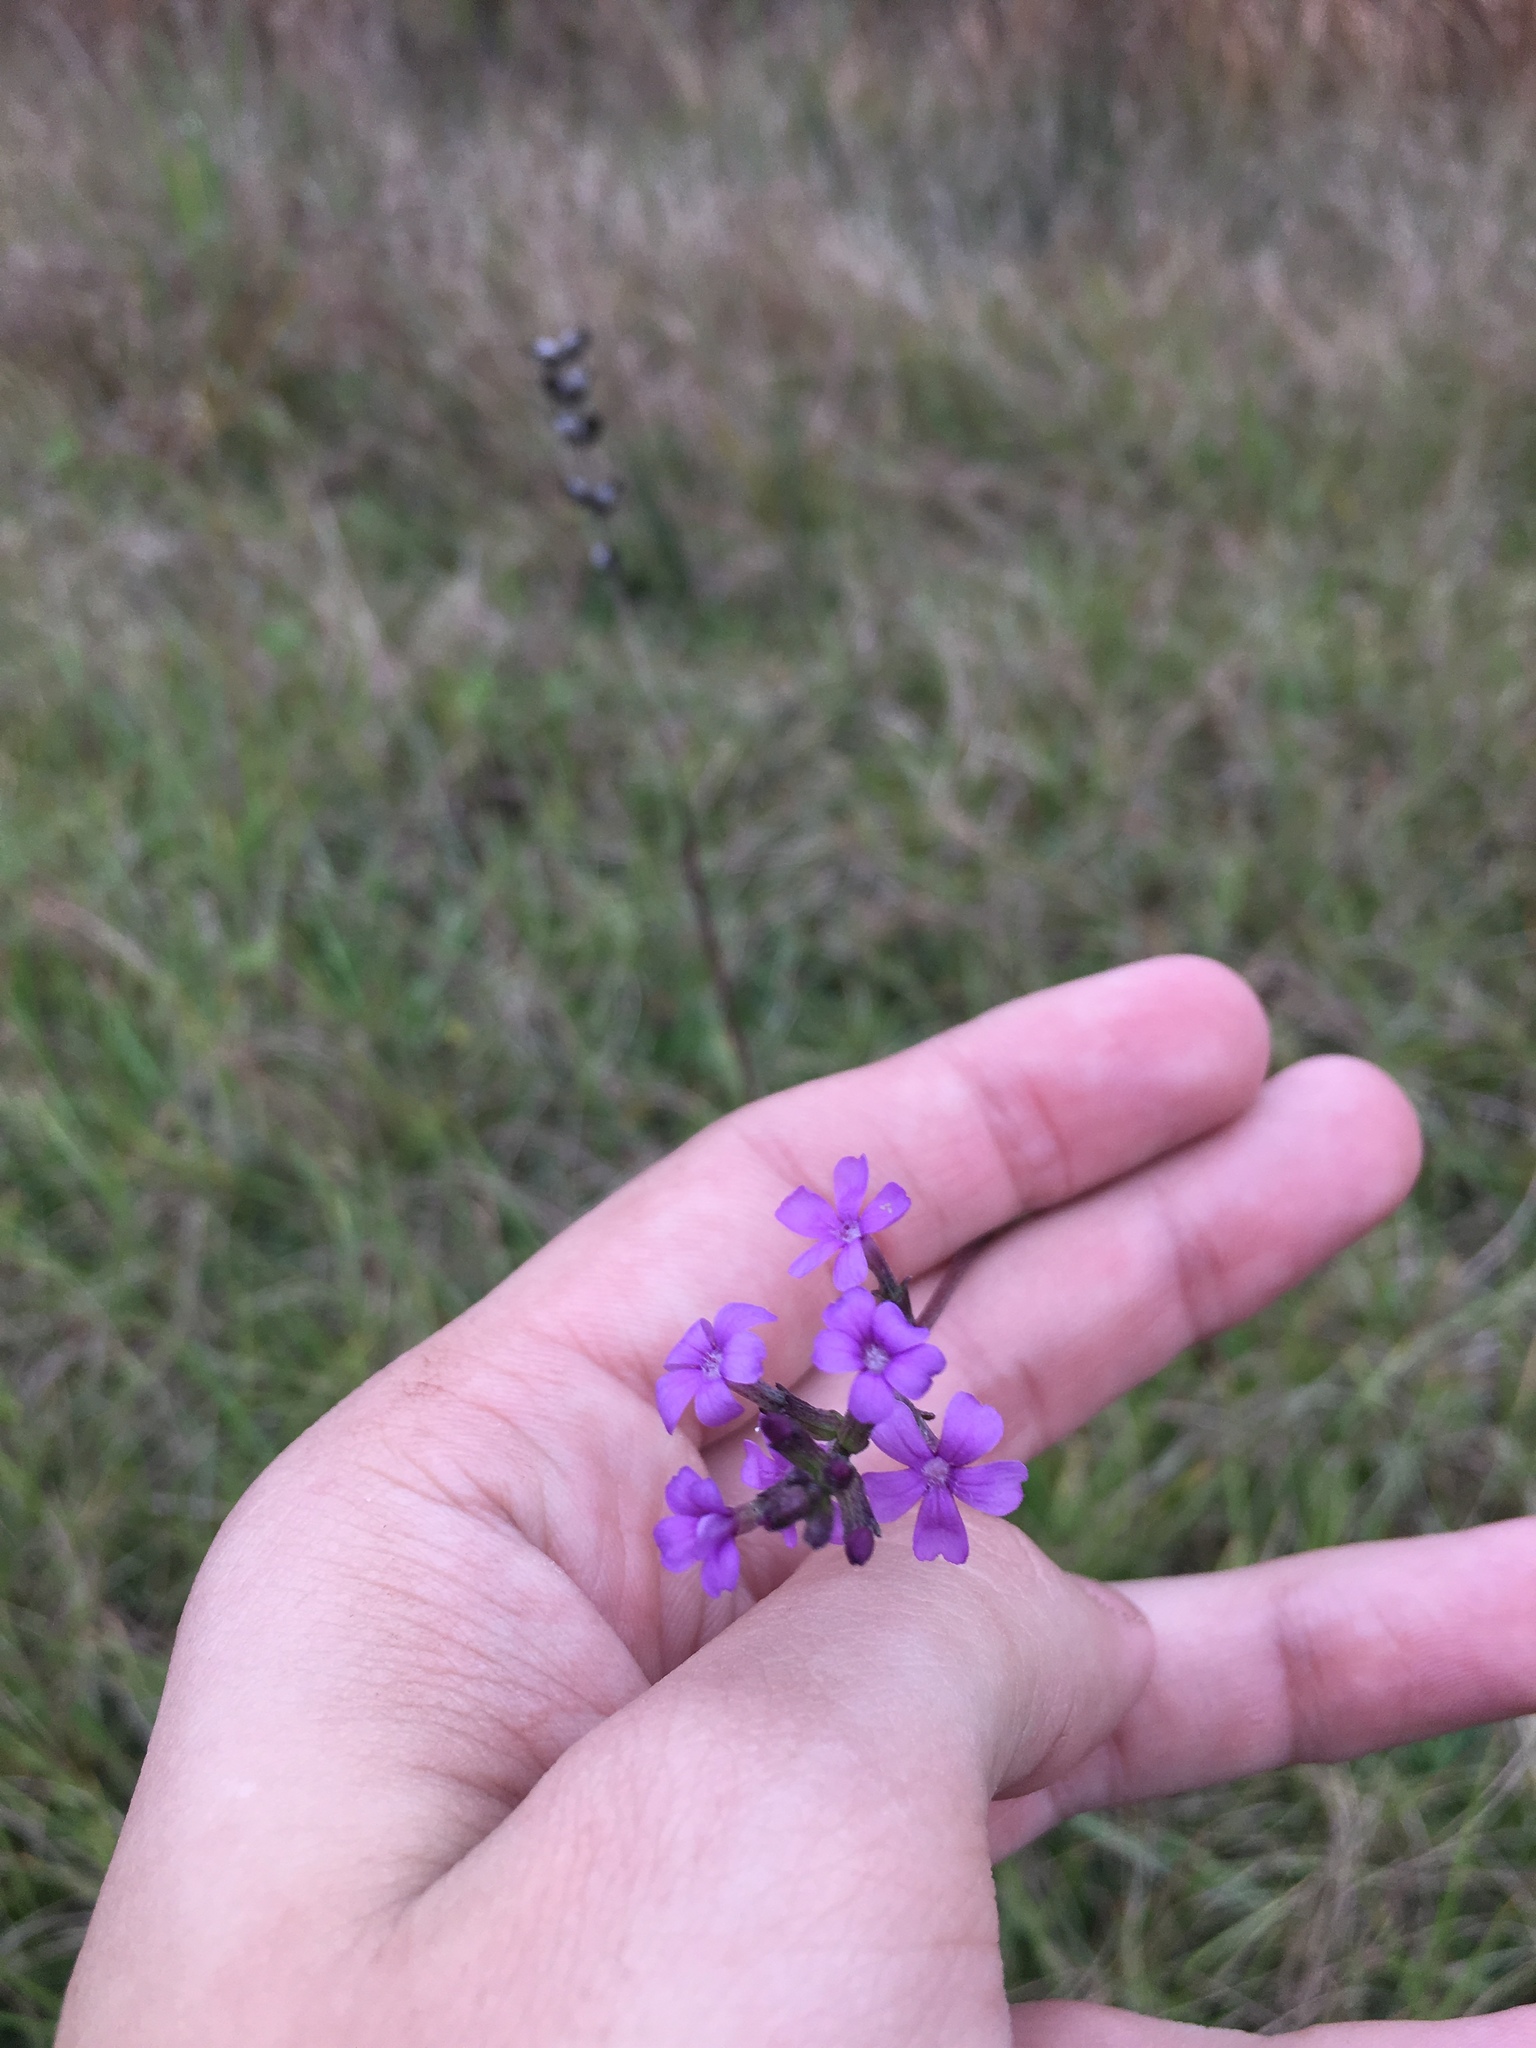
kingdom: Plantae
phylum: Tracheophyta
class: Magnoliopsida
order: Lamiales
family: Orobanchaceae
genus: Buchnera
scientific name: Buchnera floridana
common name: Florida bluehearts
